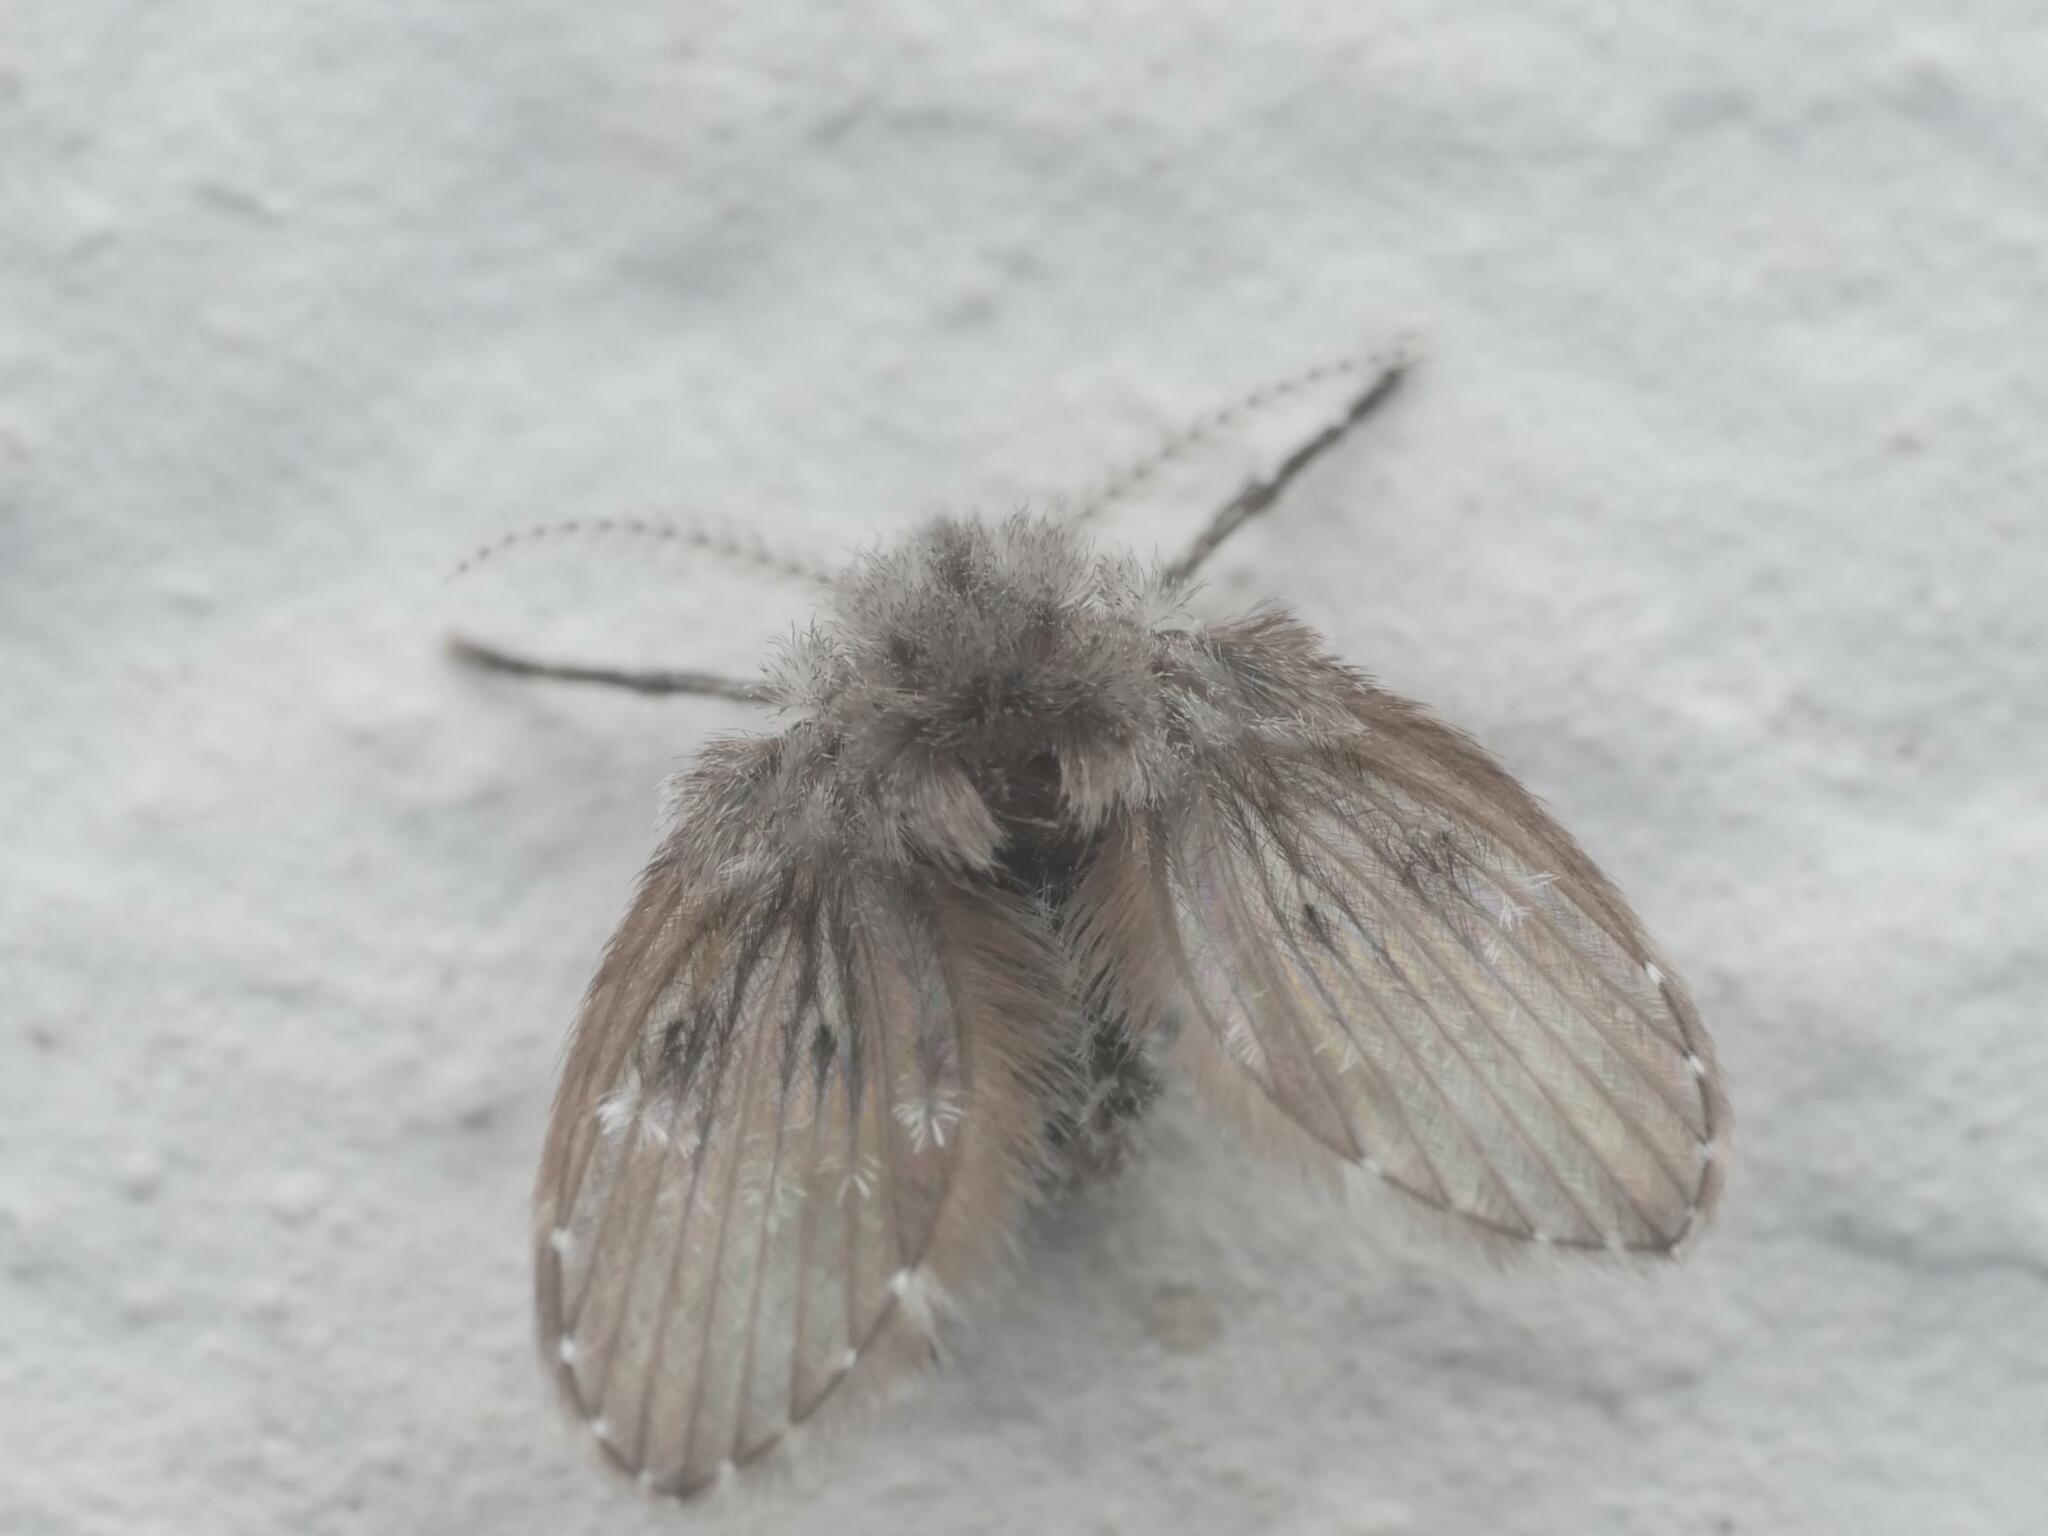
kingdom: Animalia
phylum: Arthropoda
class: Insecta
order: Diptera
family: Psychodidae
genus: Clogmia
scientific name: Clogmia albipunctatus
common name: White-spotted moth fly
